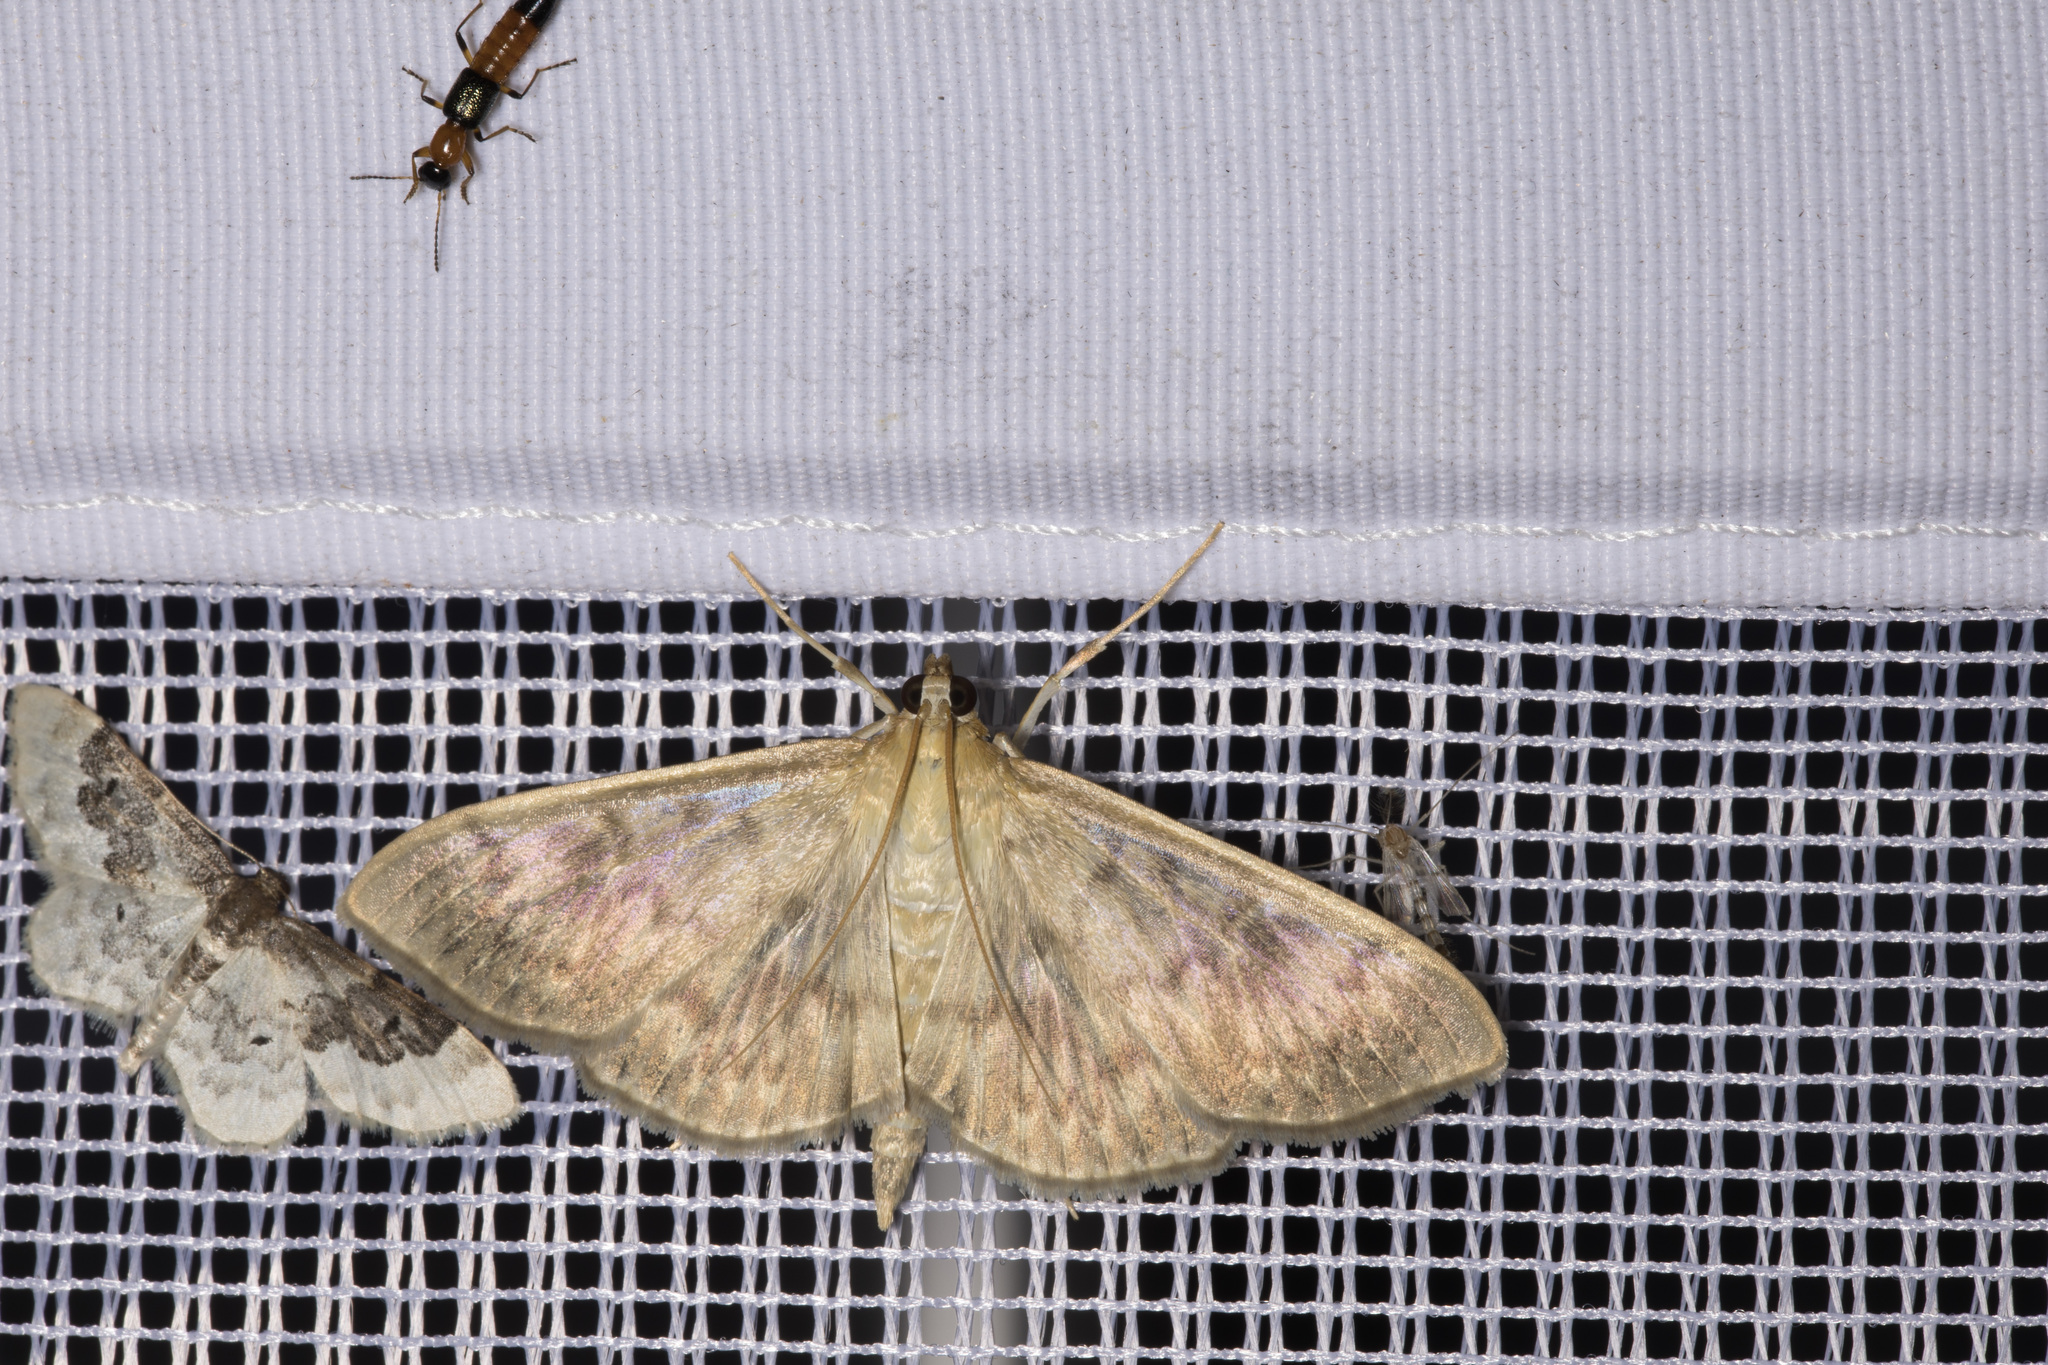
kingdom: Animalia
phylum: Arthropoda
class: Insecta
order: Lepidoptera
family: Crambidae
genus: Patania
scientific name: Patania ruralis
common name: Mother of pearl
